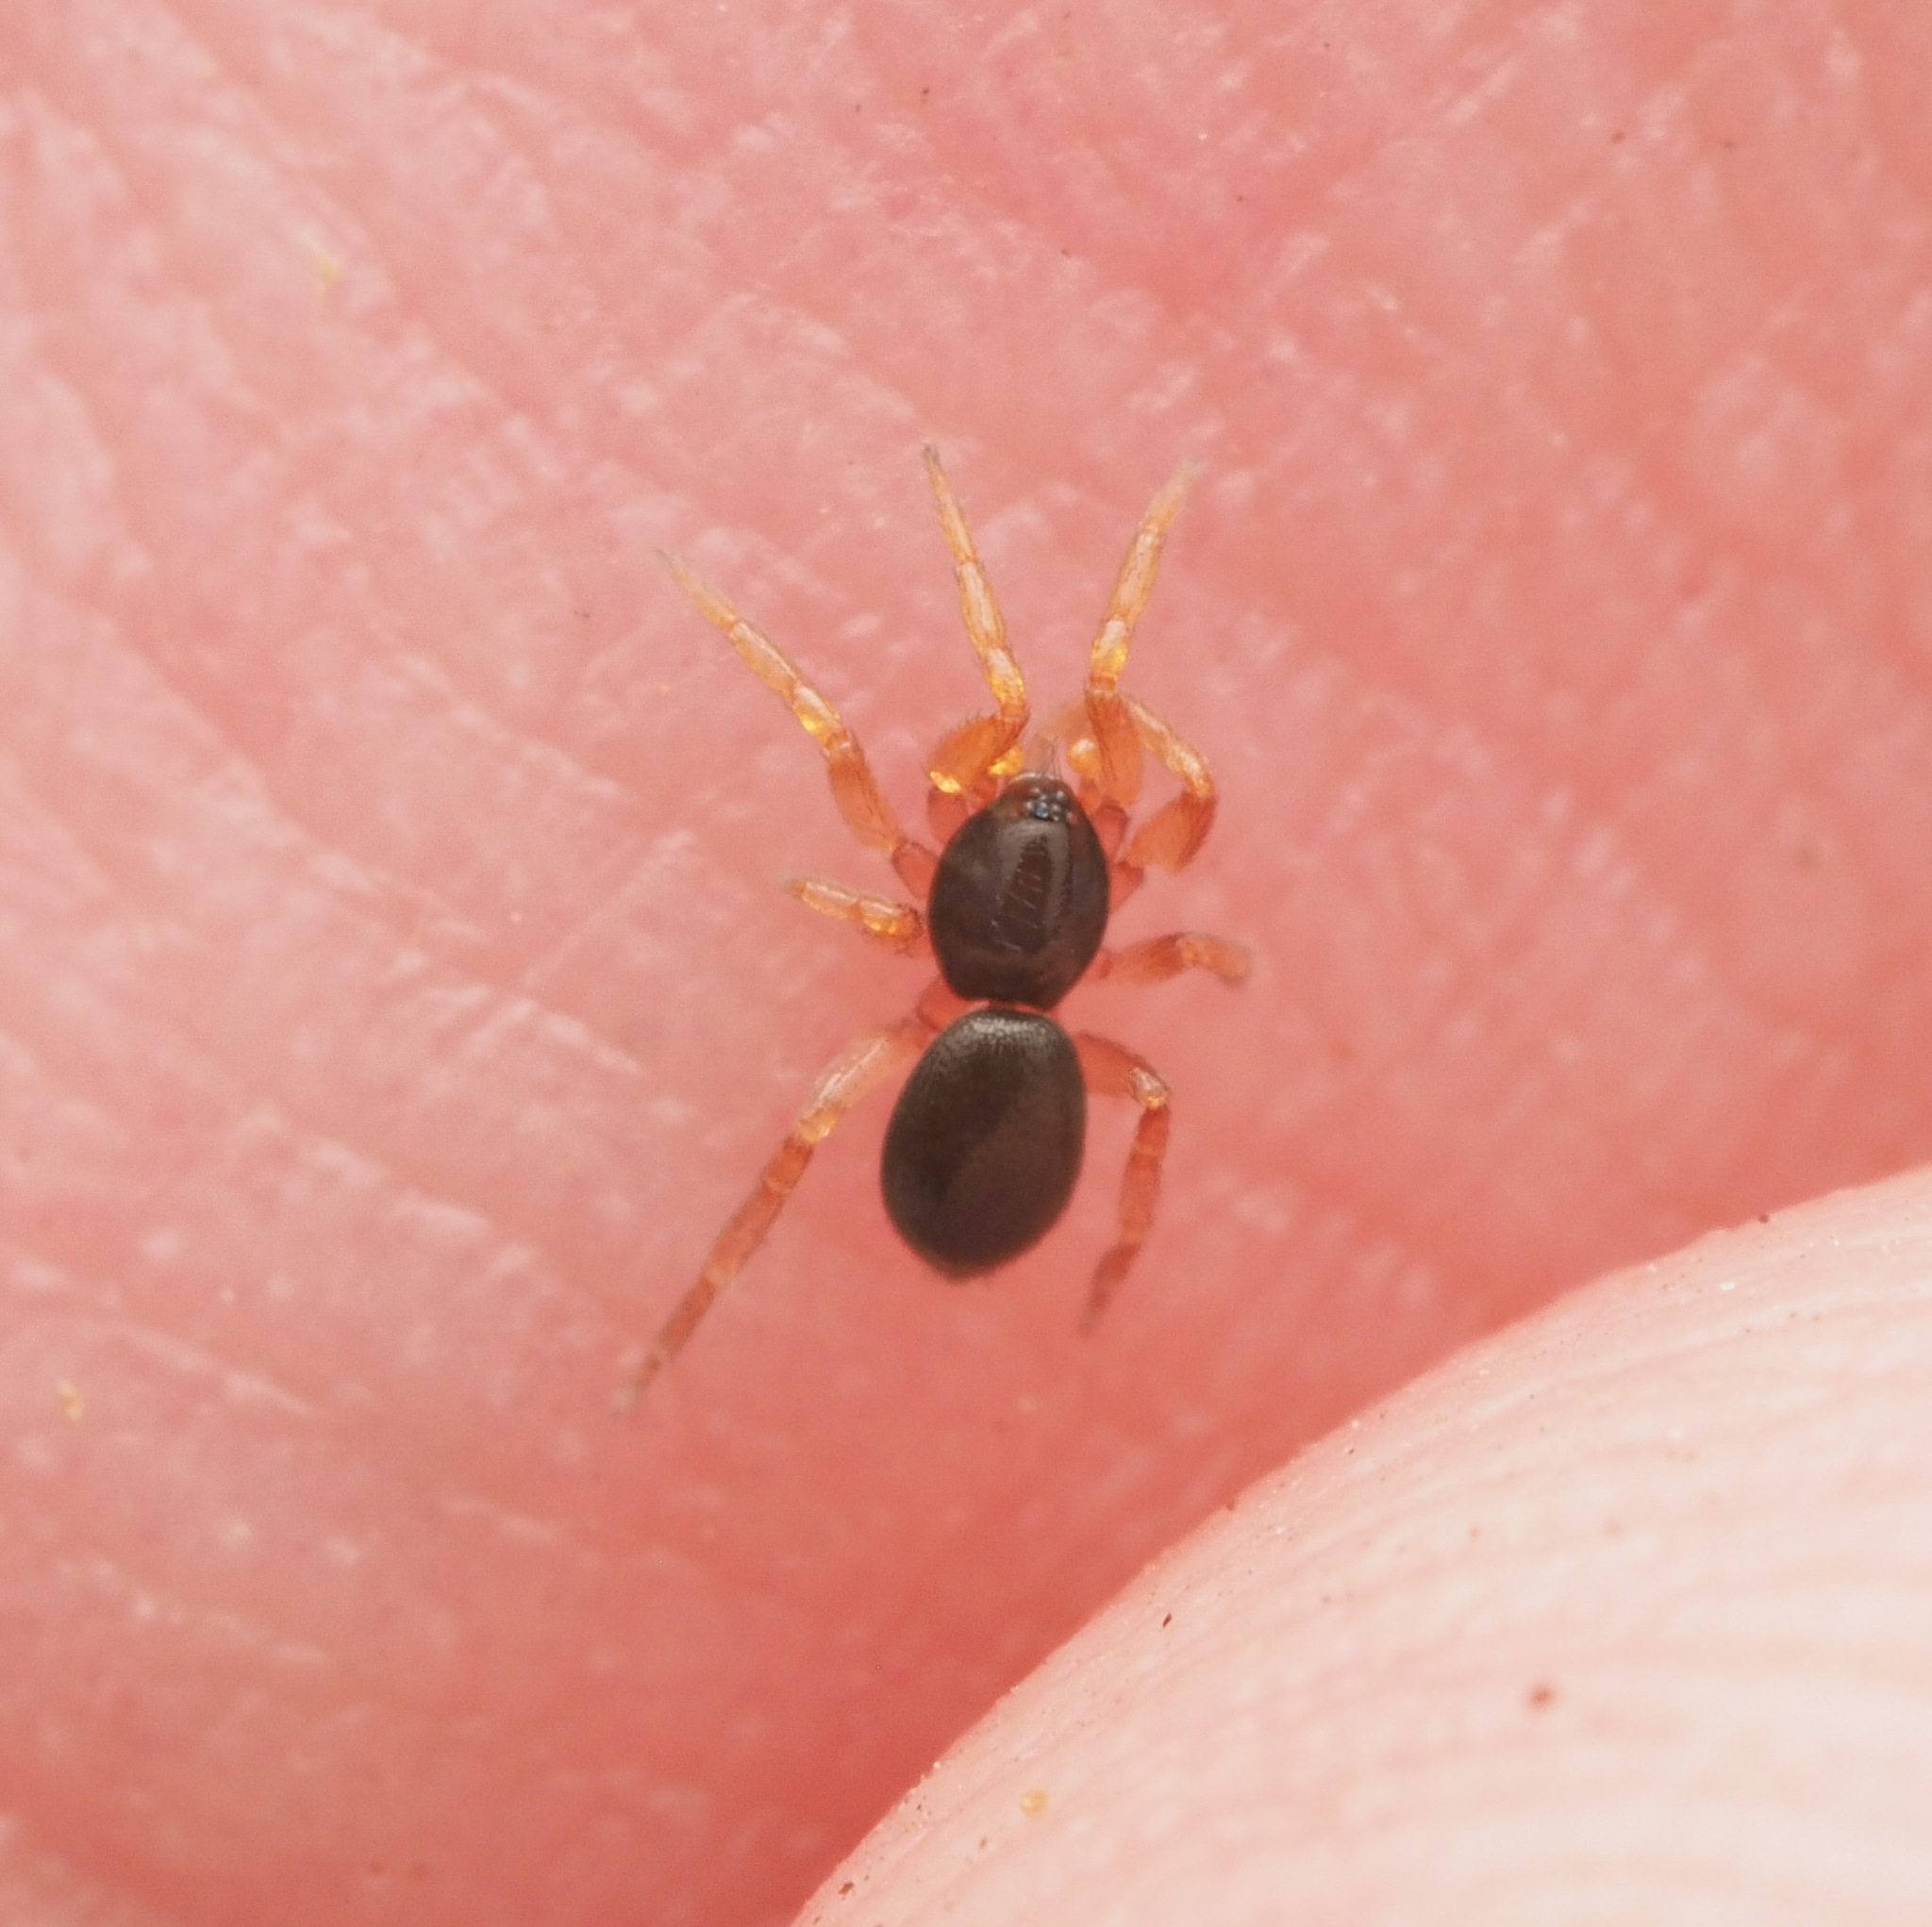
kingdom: Animalia
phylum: Arthropoda
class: Arachnida
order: Araneae
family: Oonopidae
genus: Opopaea
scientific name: Opopaea
